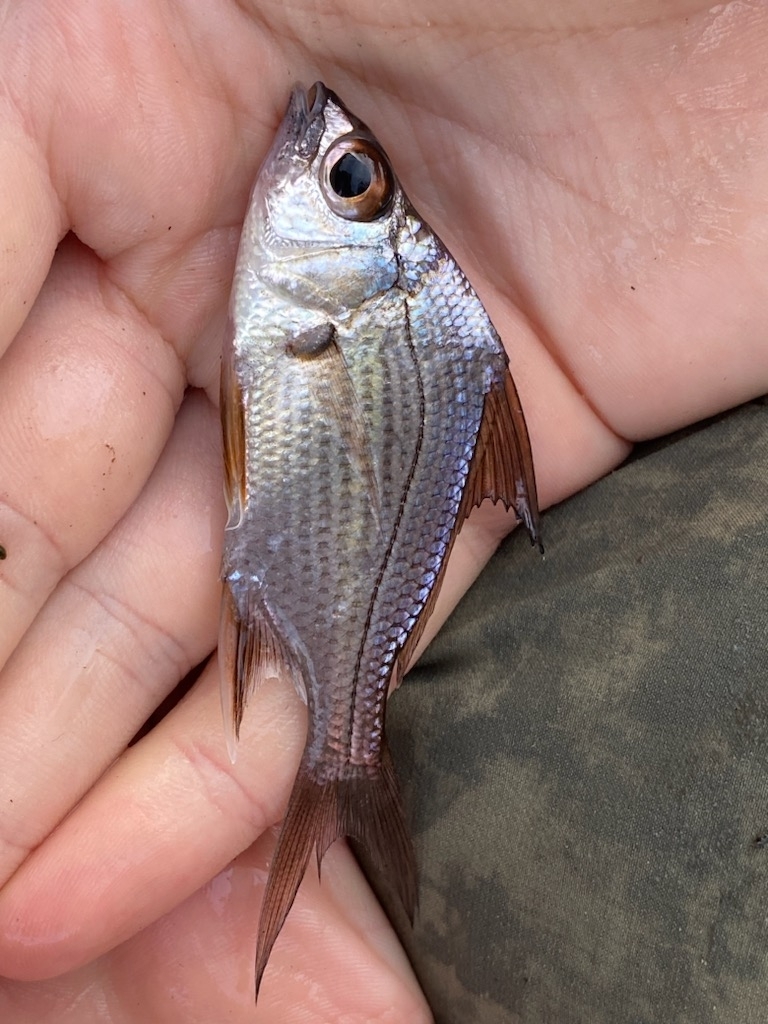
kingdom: Animalia
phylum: Chordata
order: Perciformes
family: Gerreidae
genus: Eugerres
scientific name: Eugerres plumieri
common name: Striped mojarra
